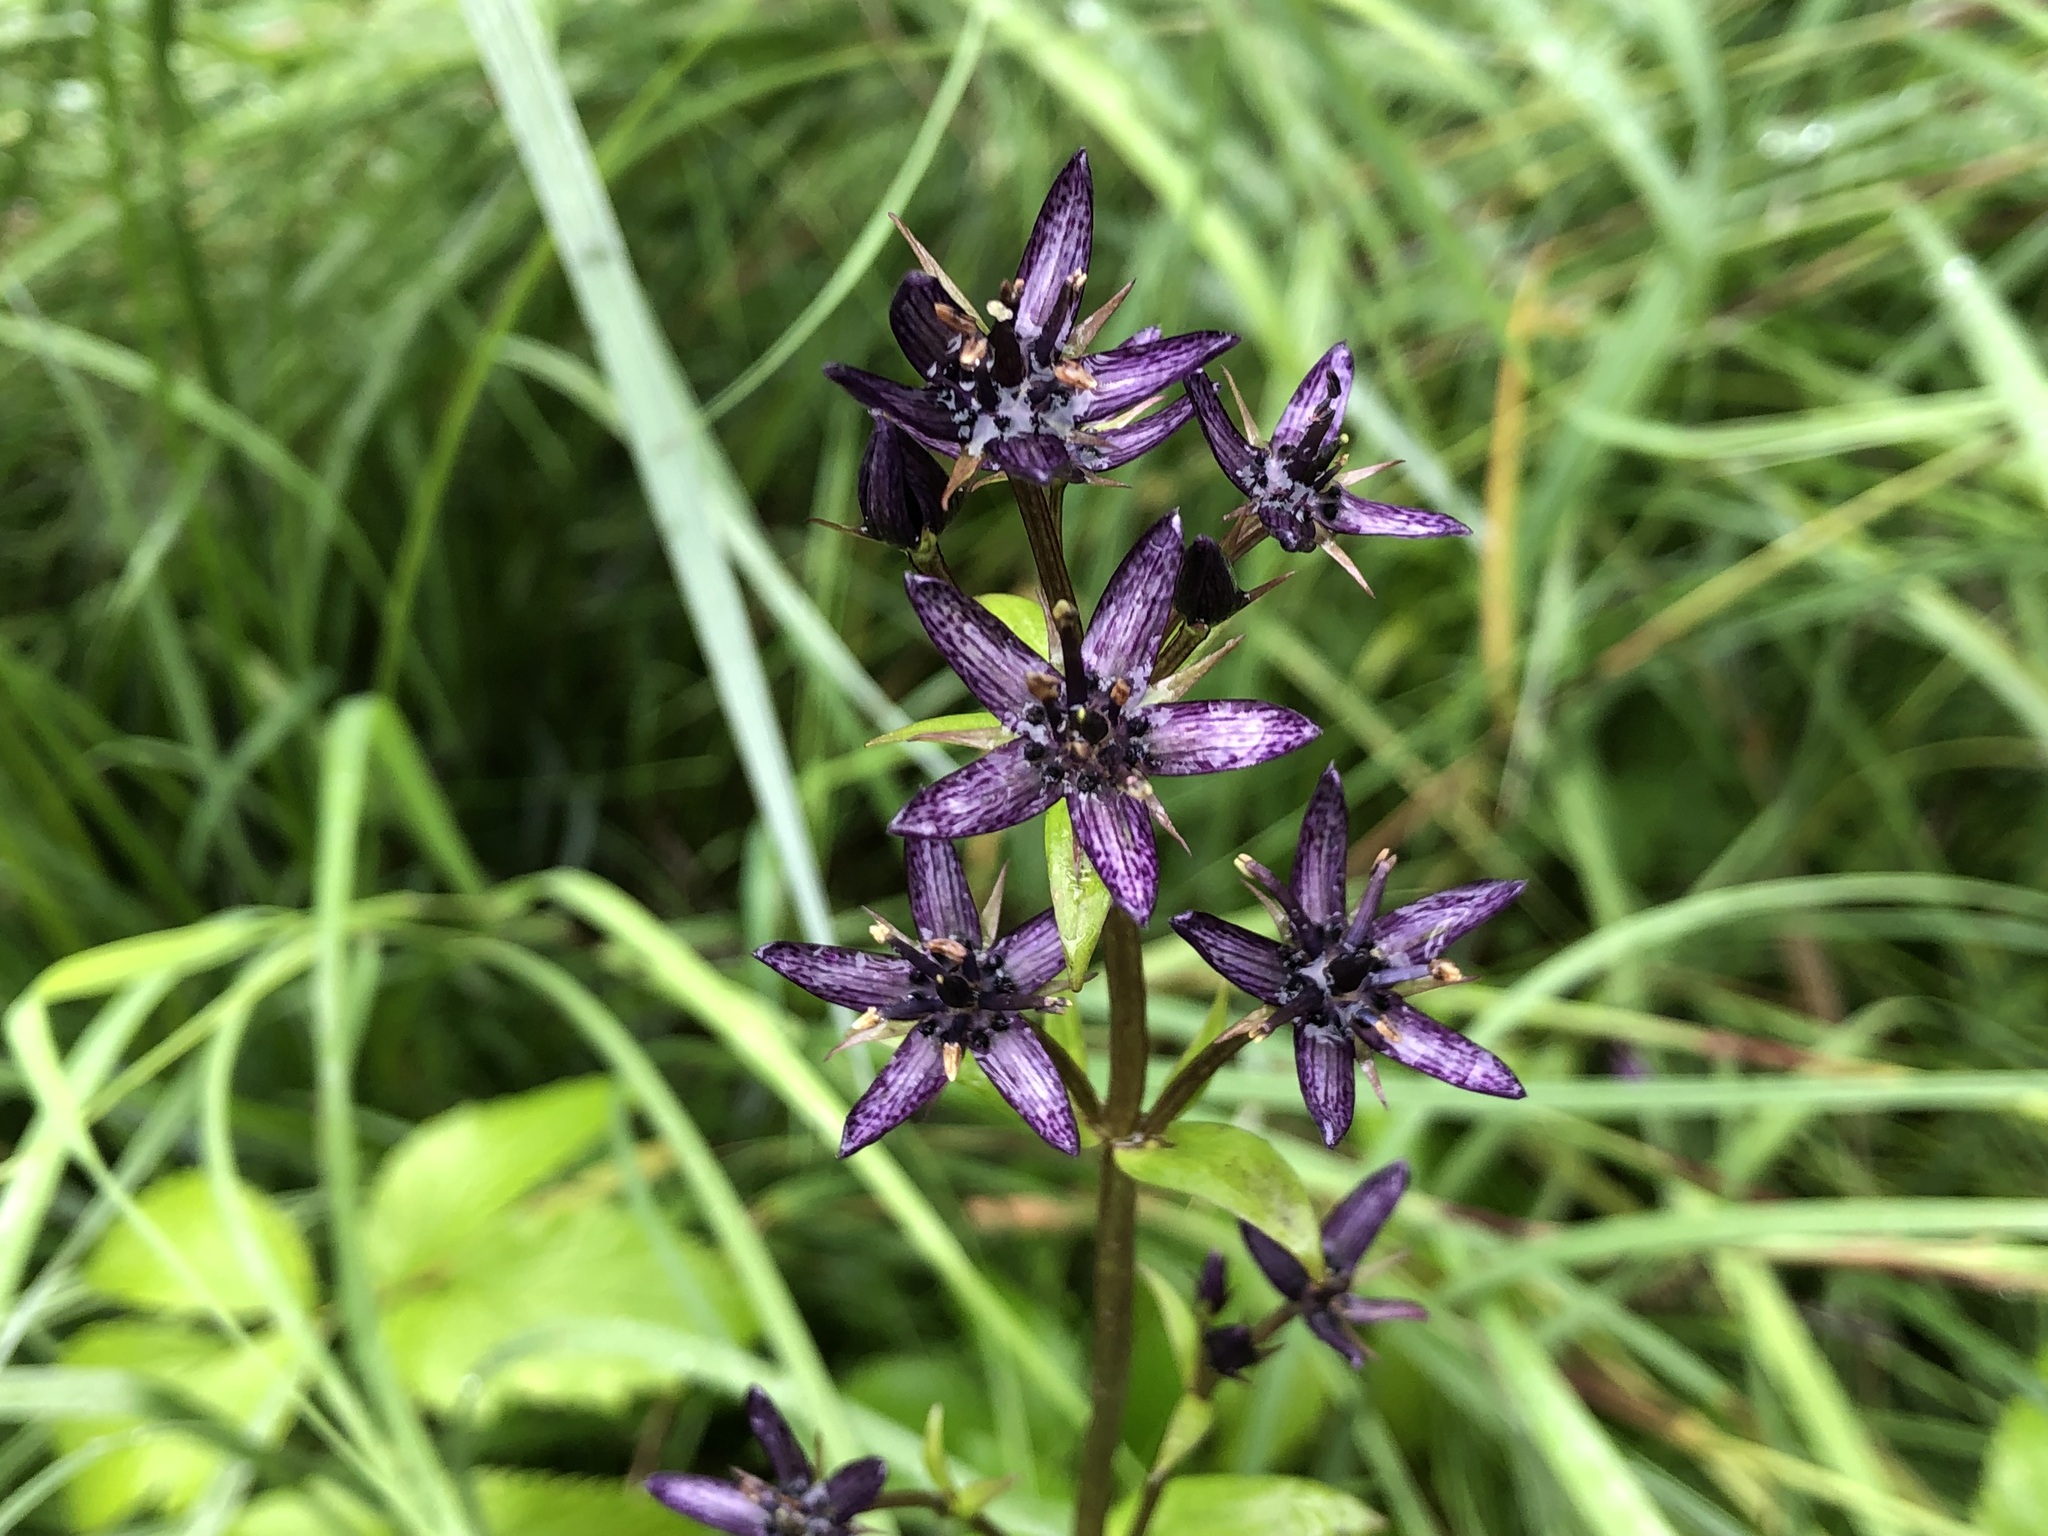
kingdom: Plantae
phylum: Tracheophyta
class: Magnoliopsida
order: Gentianales
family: Gentianaceae
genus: Swertia
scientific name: Swertia perennis
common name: Alpine bog swertia
